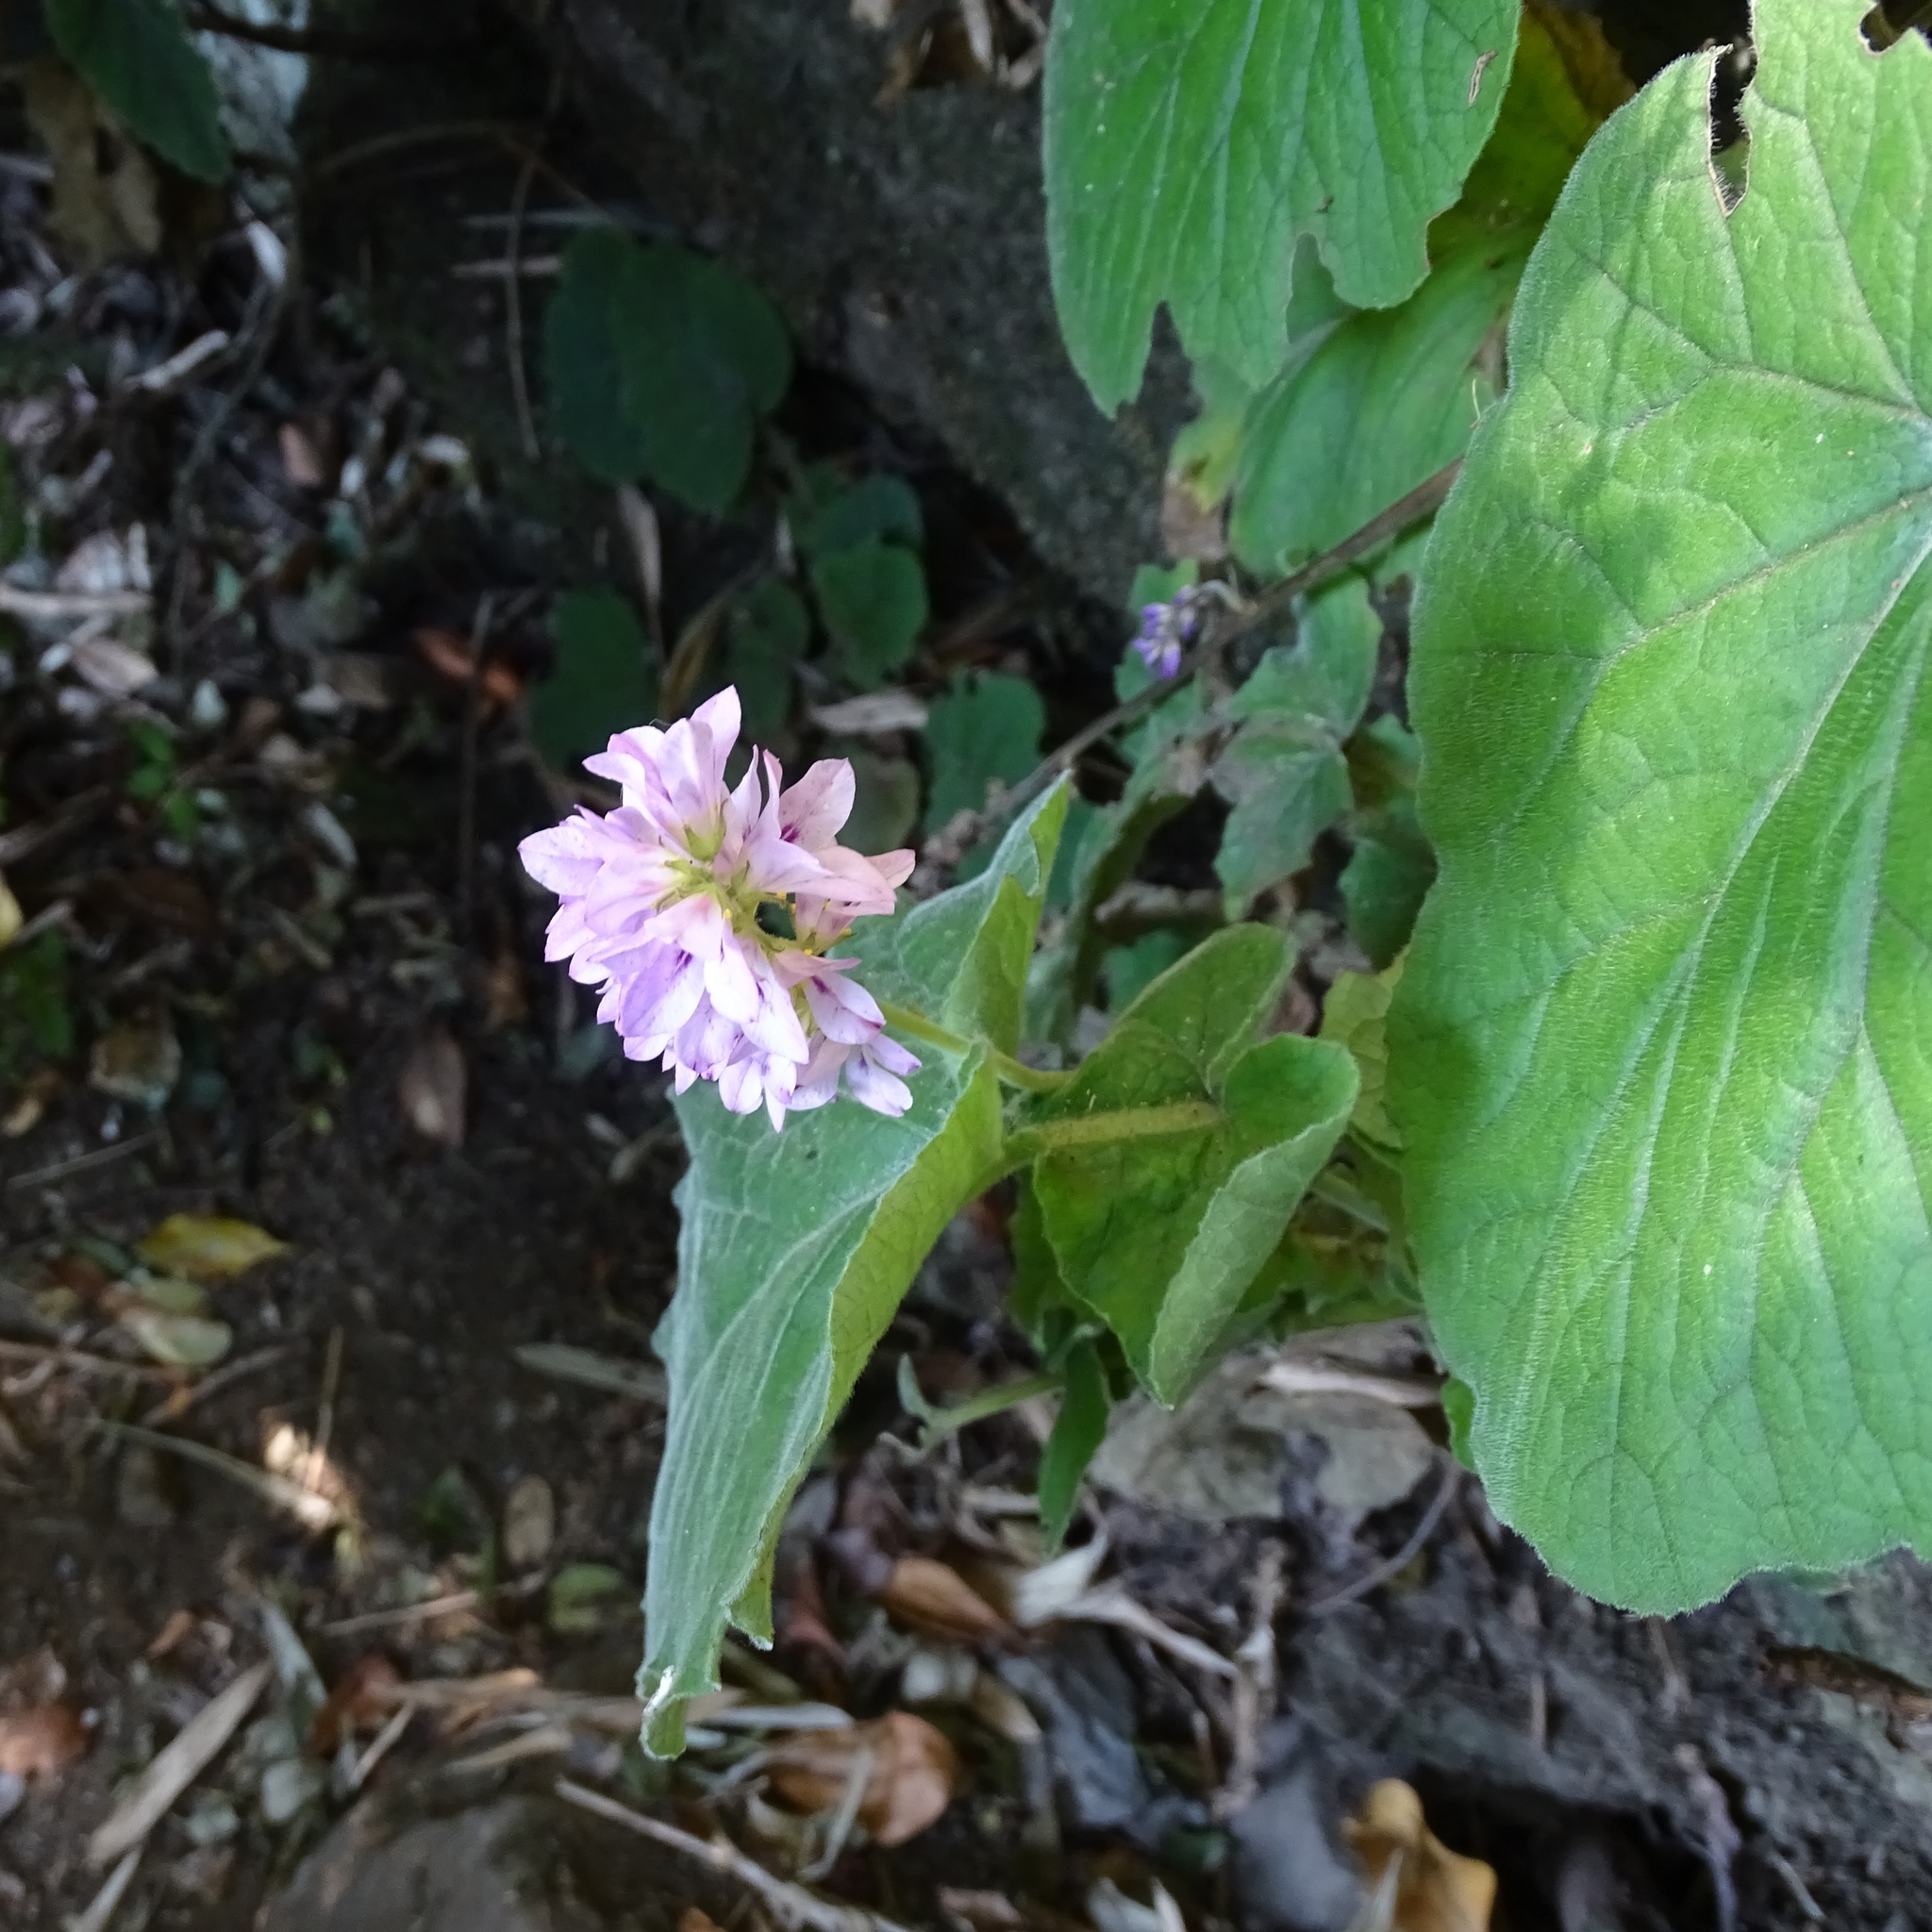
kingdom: Plantae
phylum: Tracheophyta
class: Magnoliopsida
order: Geraniales
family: Francoaceae
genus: Francoa
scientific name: Francoa appendiculata
